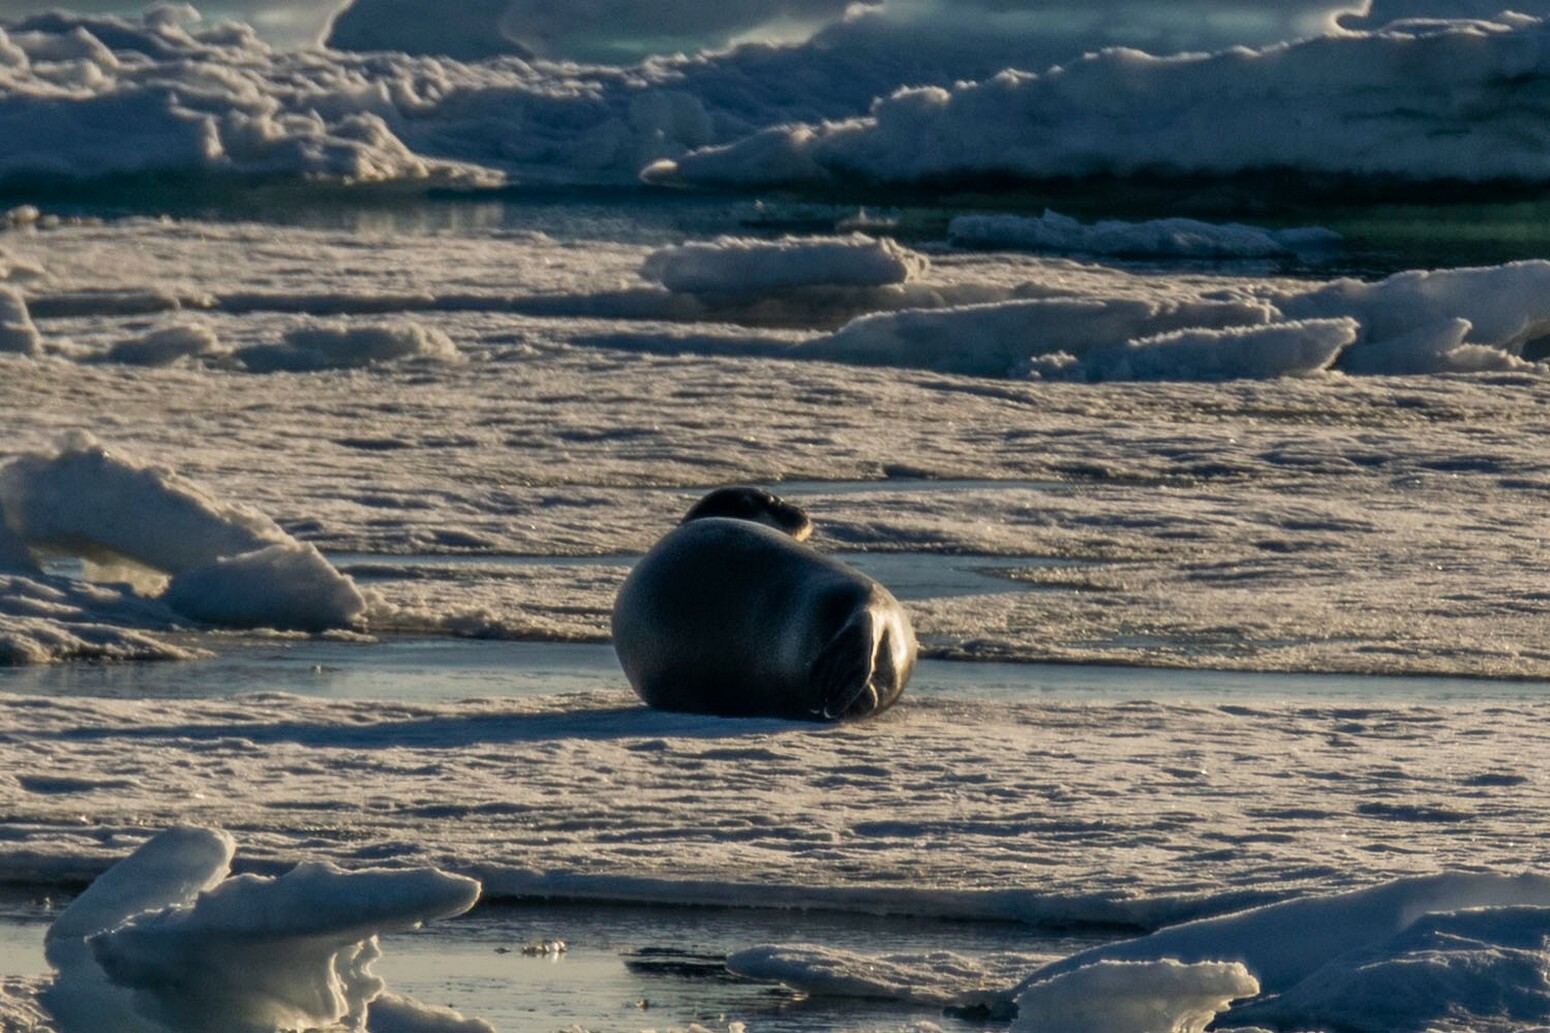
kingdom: Animalia
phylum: Chordata
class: Mammalia
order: Carnivora
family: Phocidae
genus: Erignathus
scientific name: Erignathus barbatus
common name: Bearded seal
